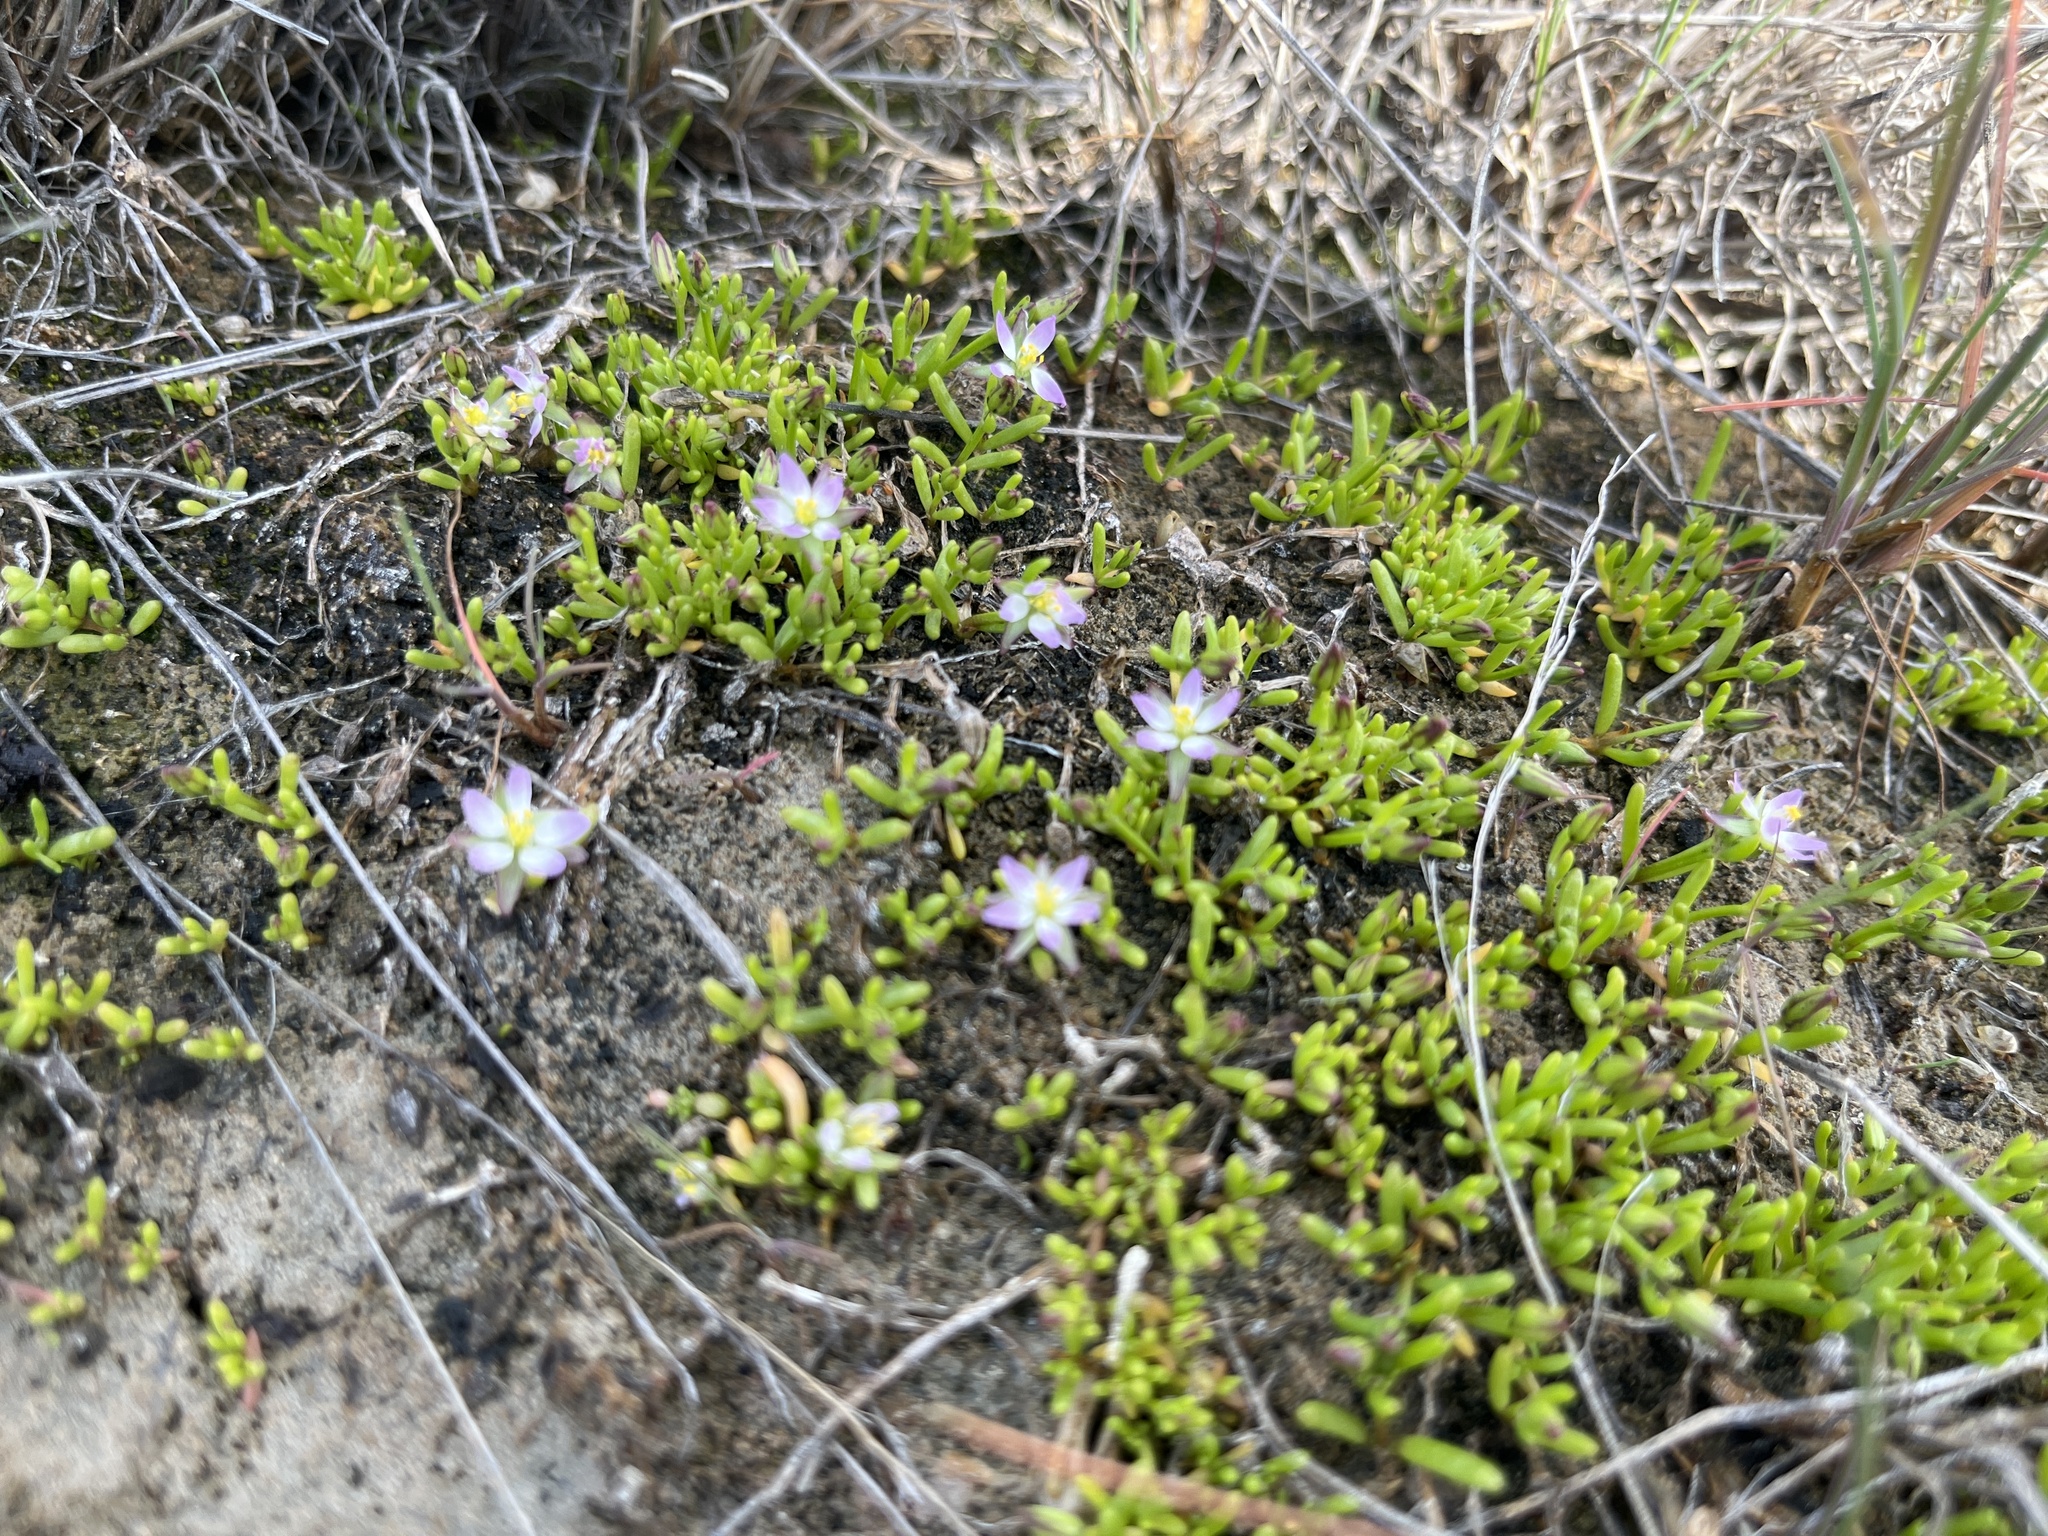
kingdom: Plantae
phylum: Tracheophyta
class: Magnoliopsida
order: Caryophyllales
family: Caryophyllaceae
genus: Spergularia
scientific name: Spergularia canadensis
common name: Canada sand-spurrey
